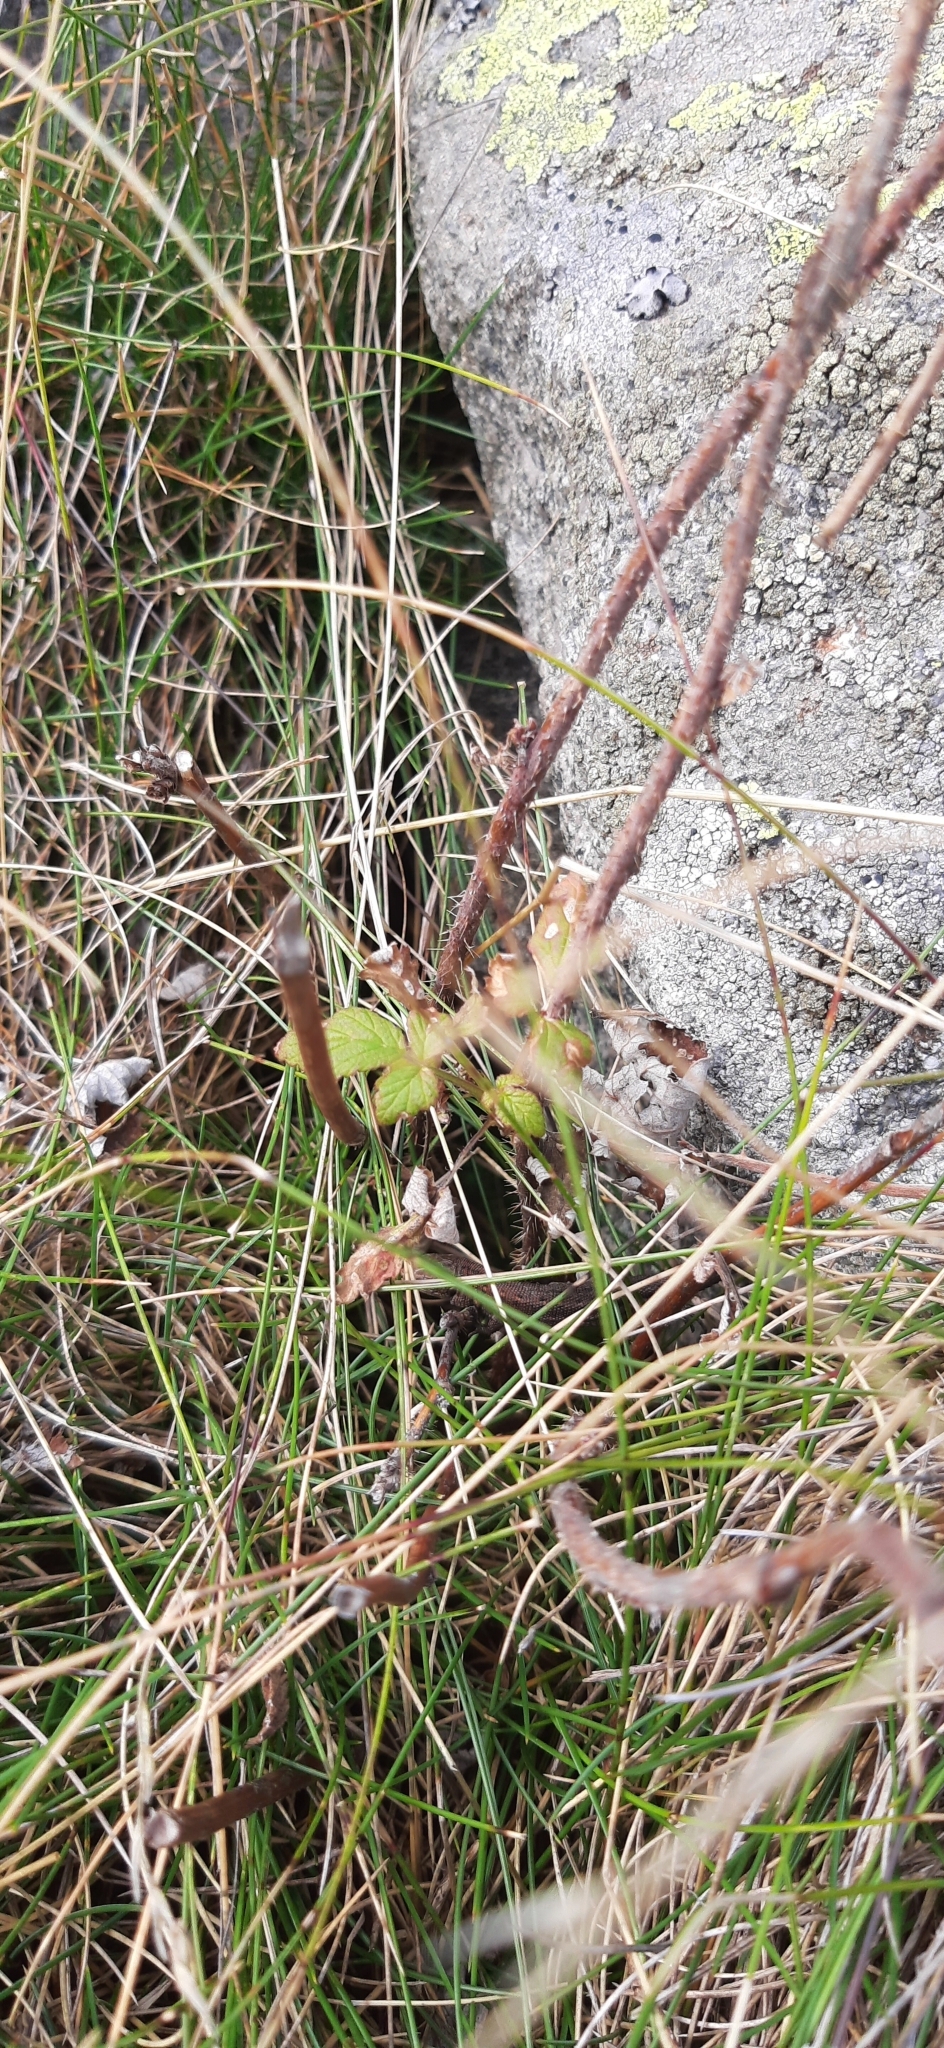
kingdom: Animalia
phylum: Chordata
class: Squamata
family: Lacertidae
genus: Zootoca
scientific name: Zootoca
